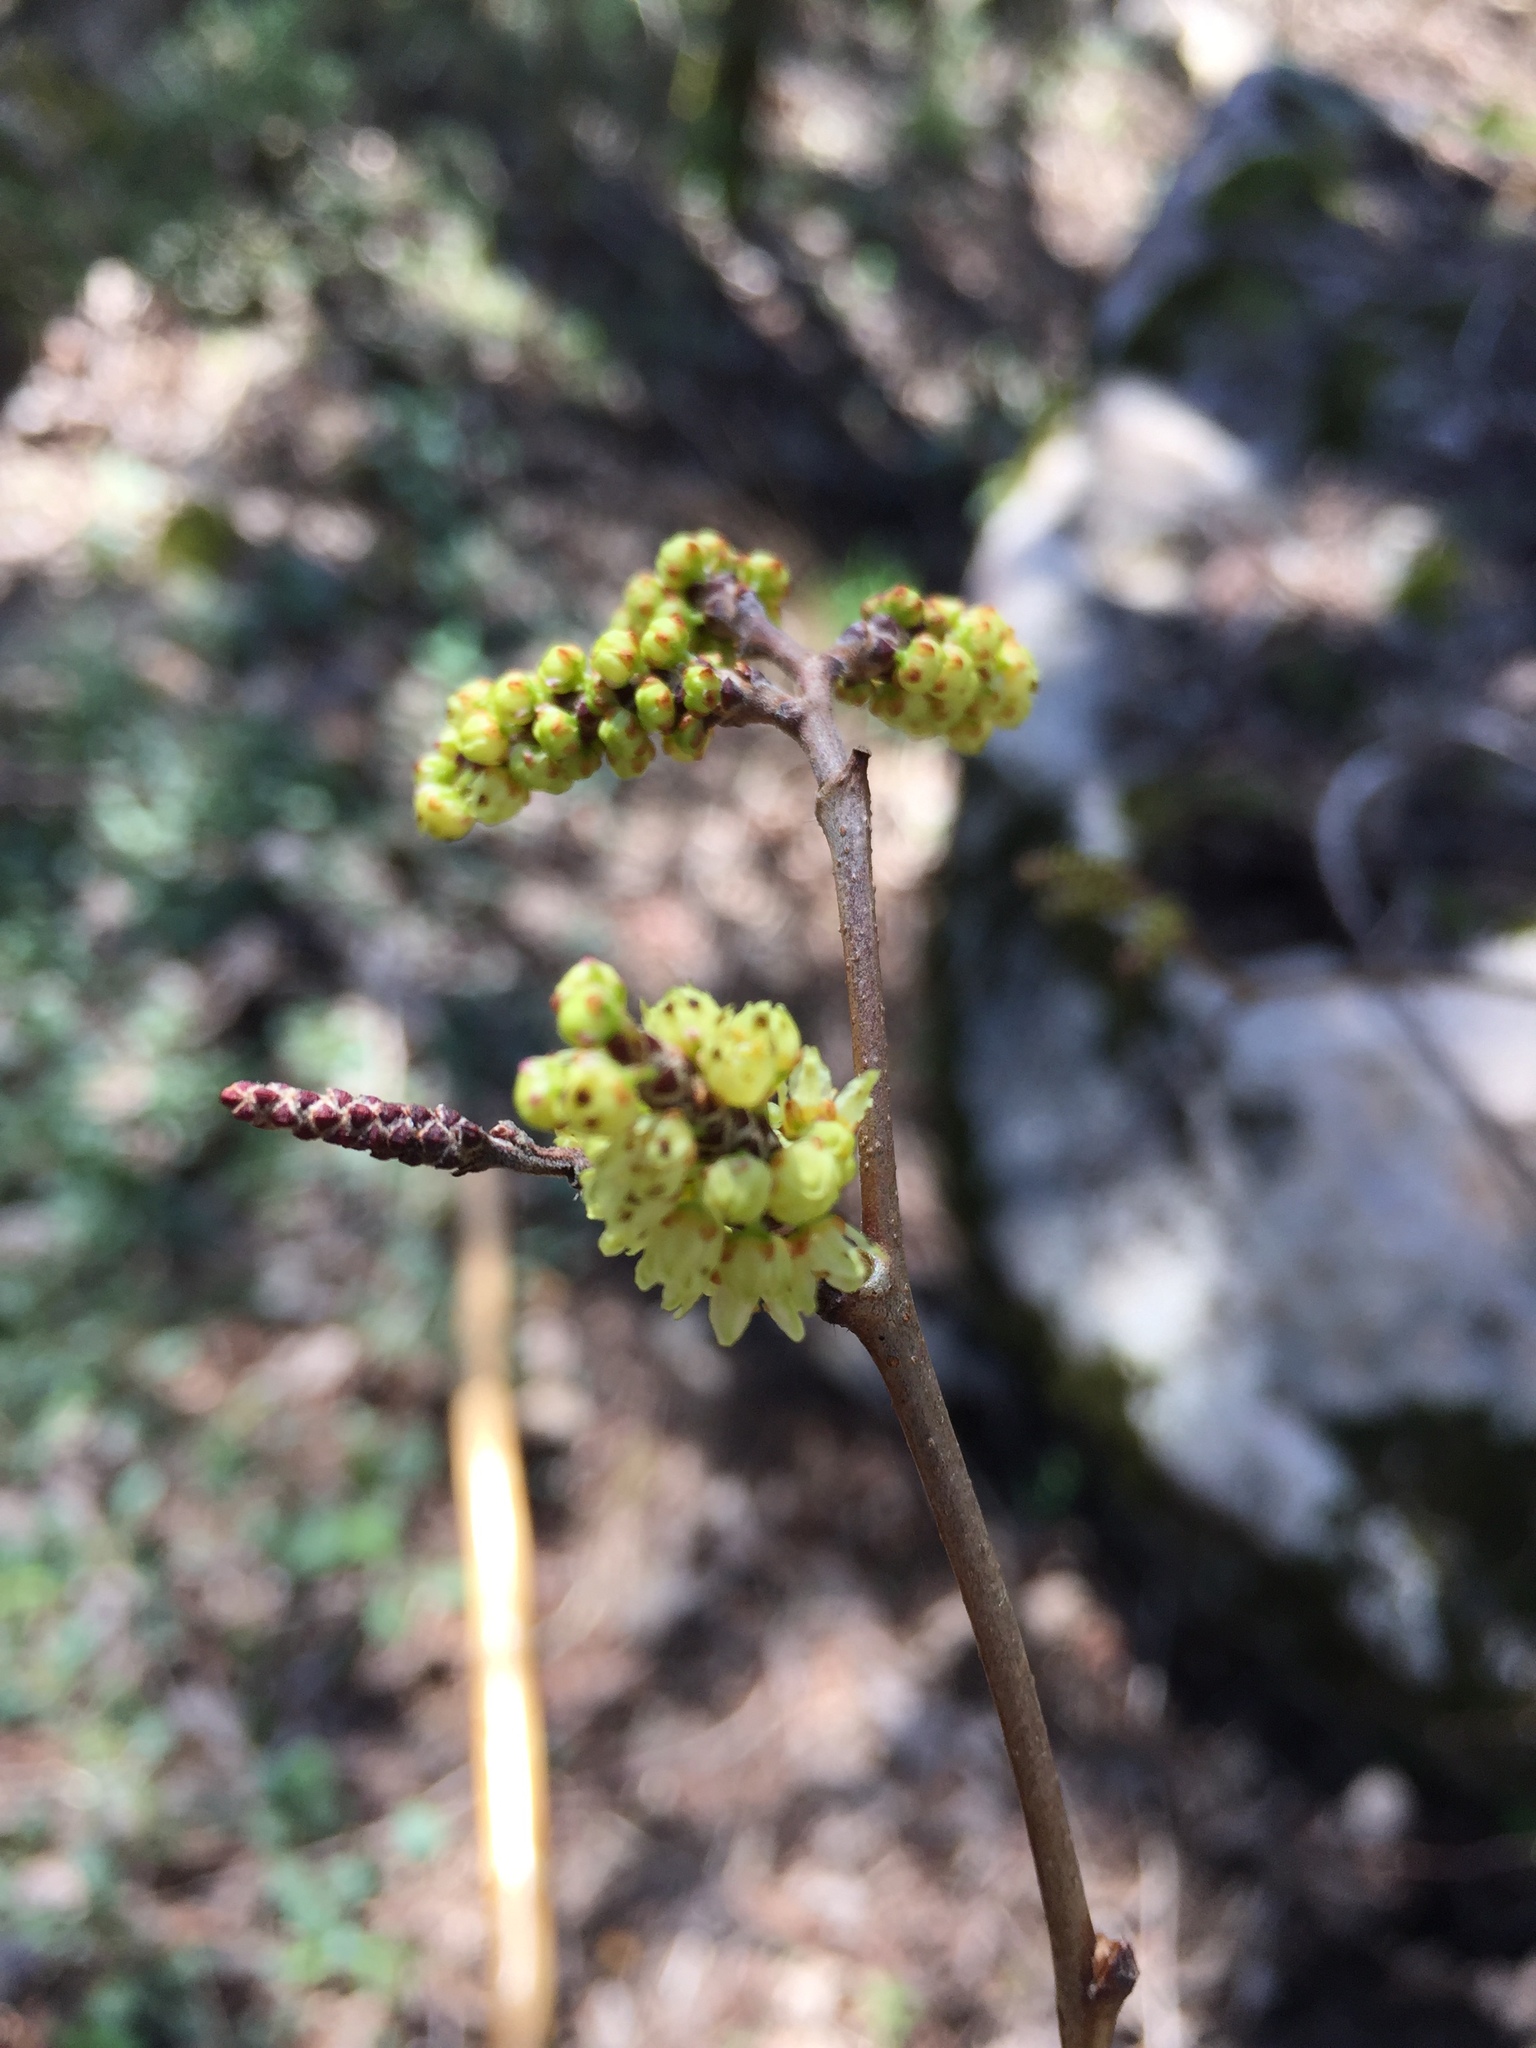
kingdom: Plantae
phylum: Tracheophyta
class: Magnoliopsida
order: Sapindales
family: Anacardiaceae
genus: Rhus
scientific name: Rhus aromatica
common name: Aromatic sumac
